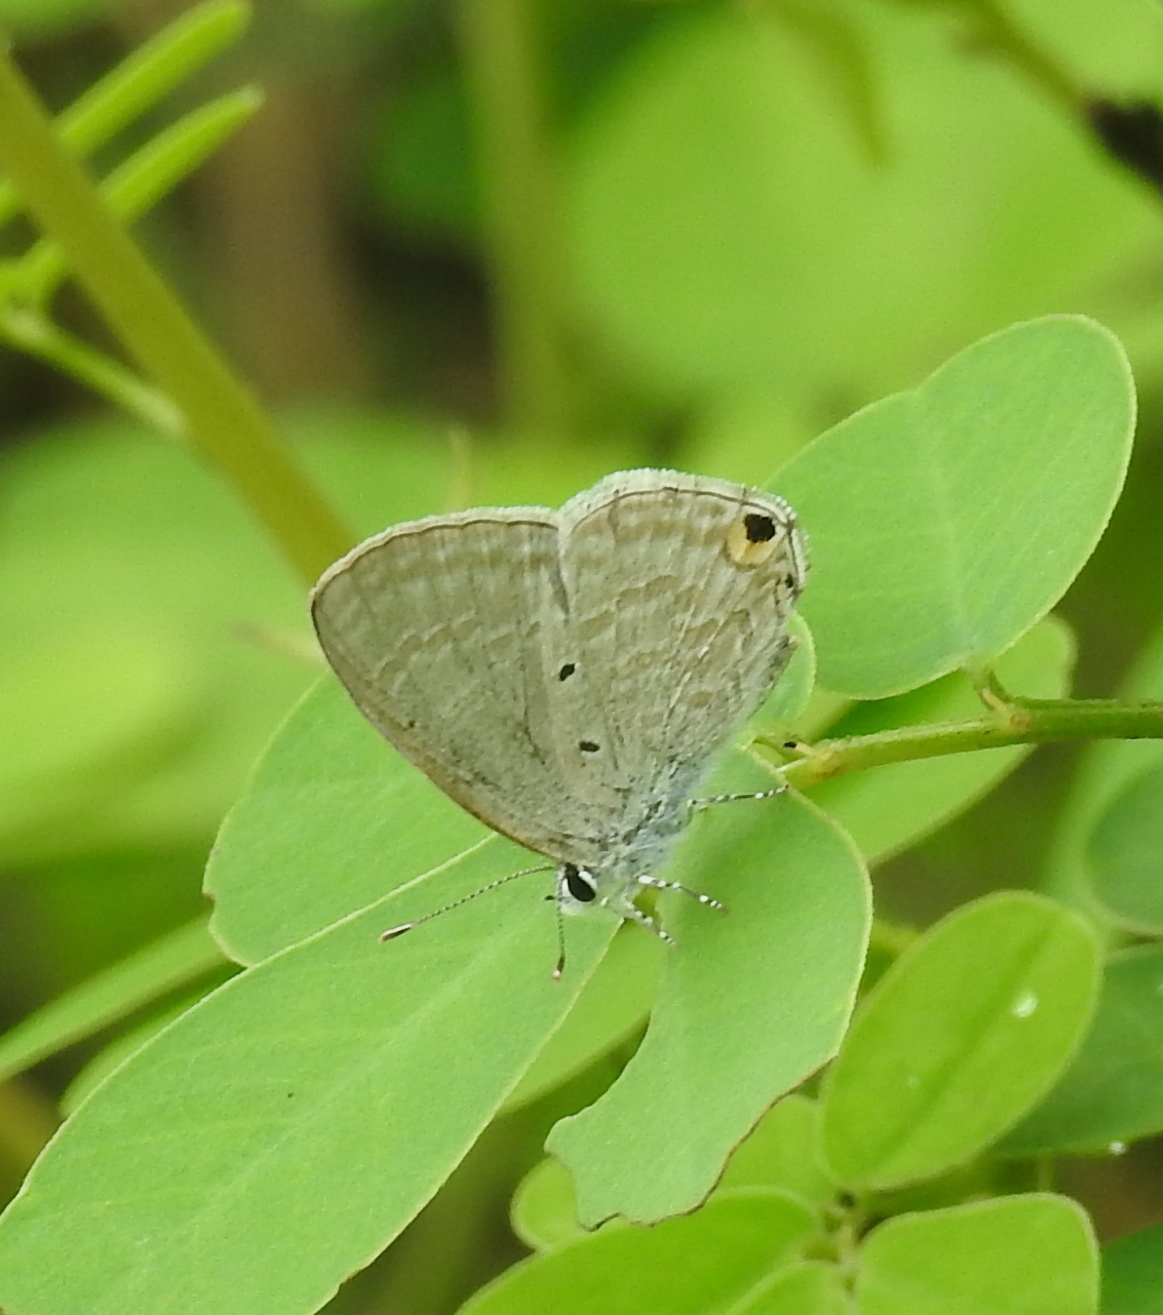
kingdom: Animalia
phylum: Arthropoda
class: Insecta
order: Lepidoptera
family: Lycaenidae
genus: Catochrysops
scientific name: Catochrysops strabo
